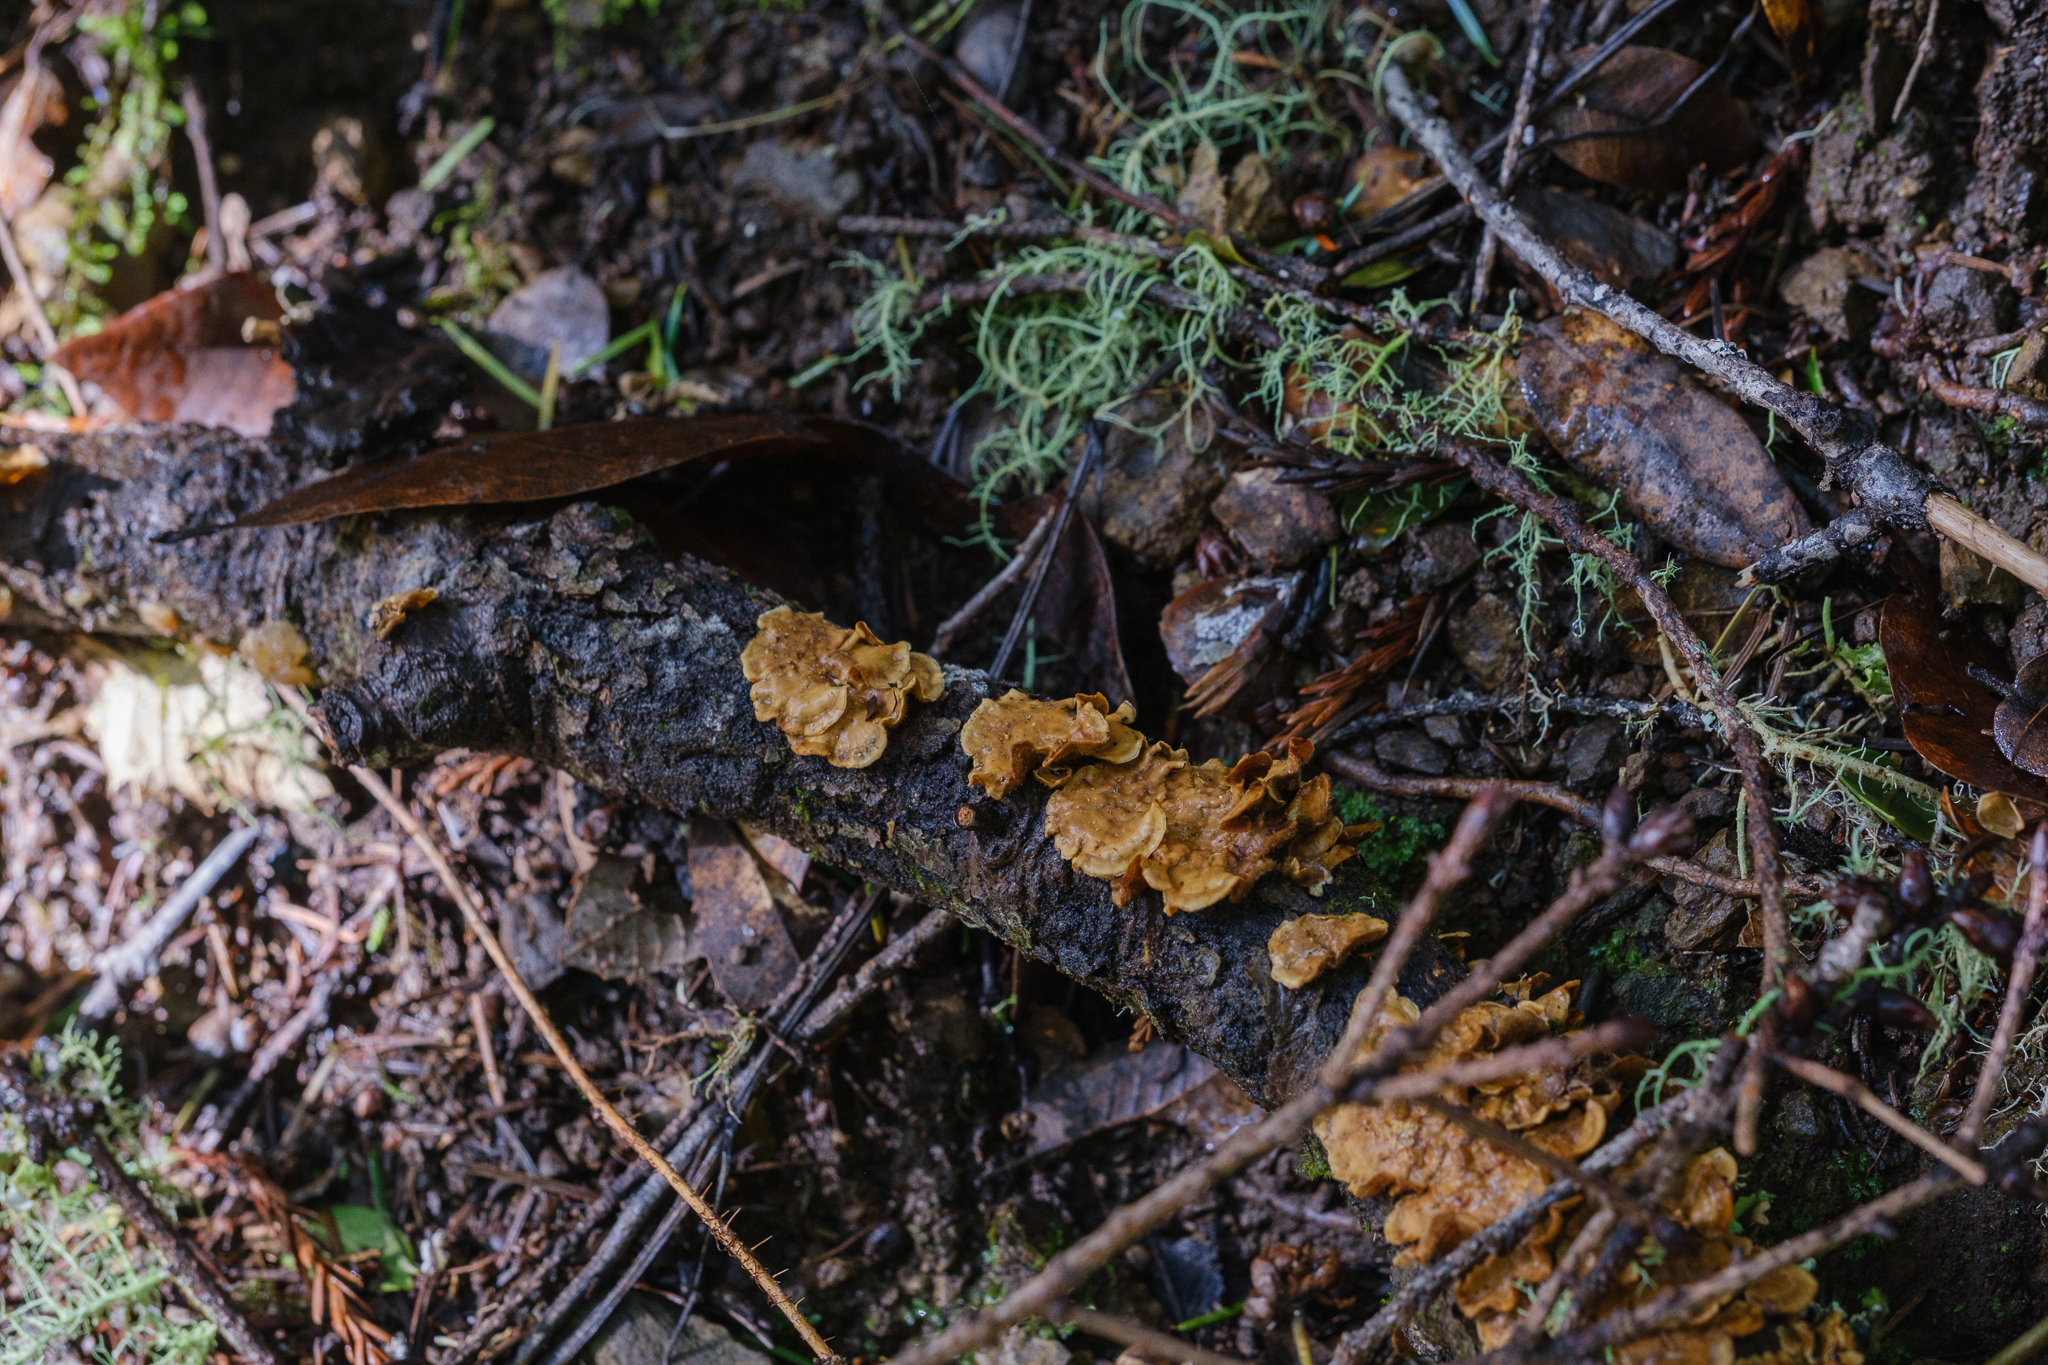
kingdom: Fungi
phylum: Basidiomycota
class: Agaricomycetes
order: Russulales
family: Stereaceae
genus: Stereum
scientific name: Stereum hirsutum
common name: Hairy curtain crust
